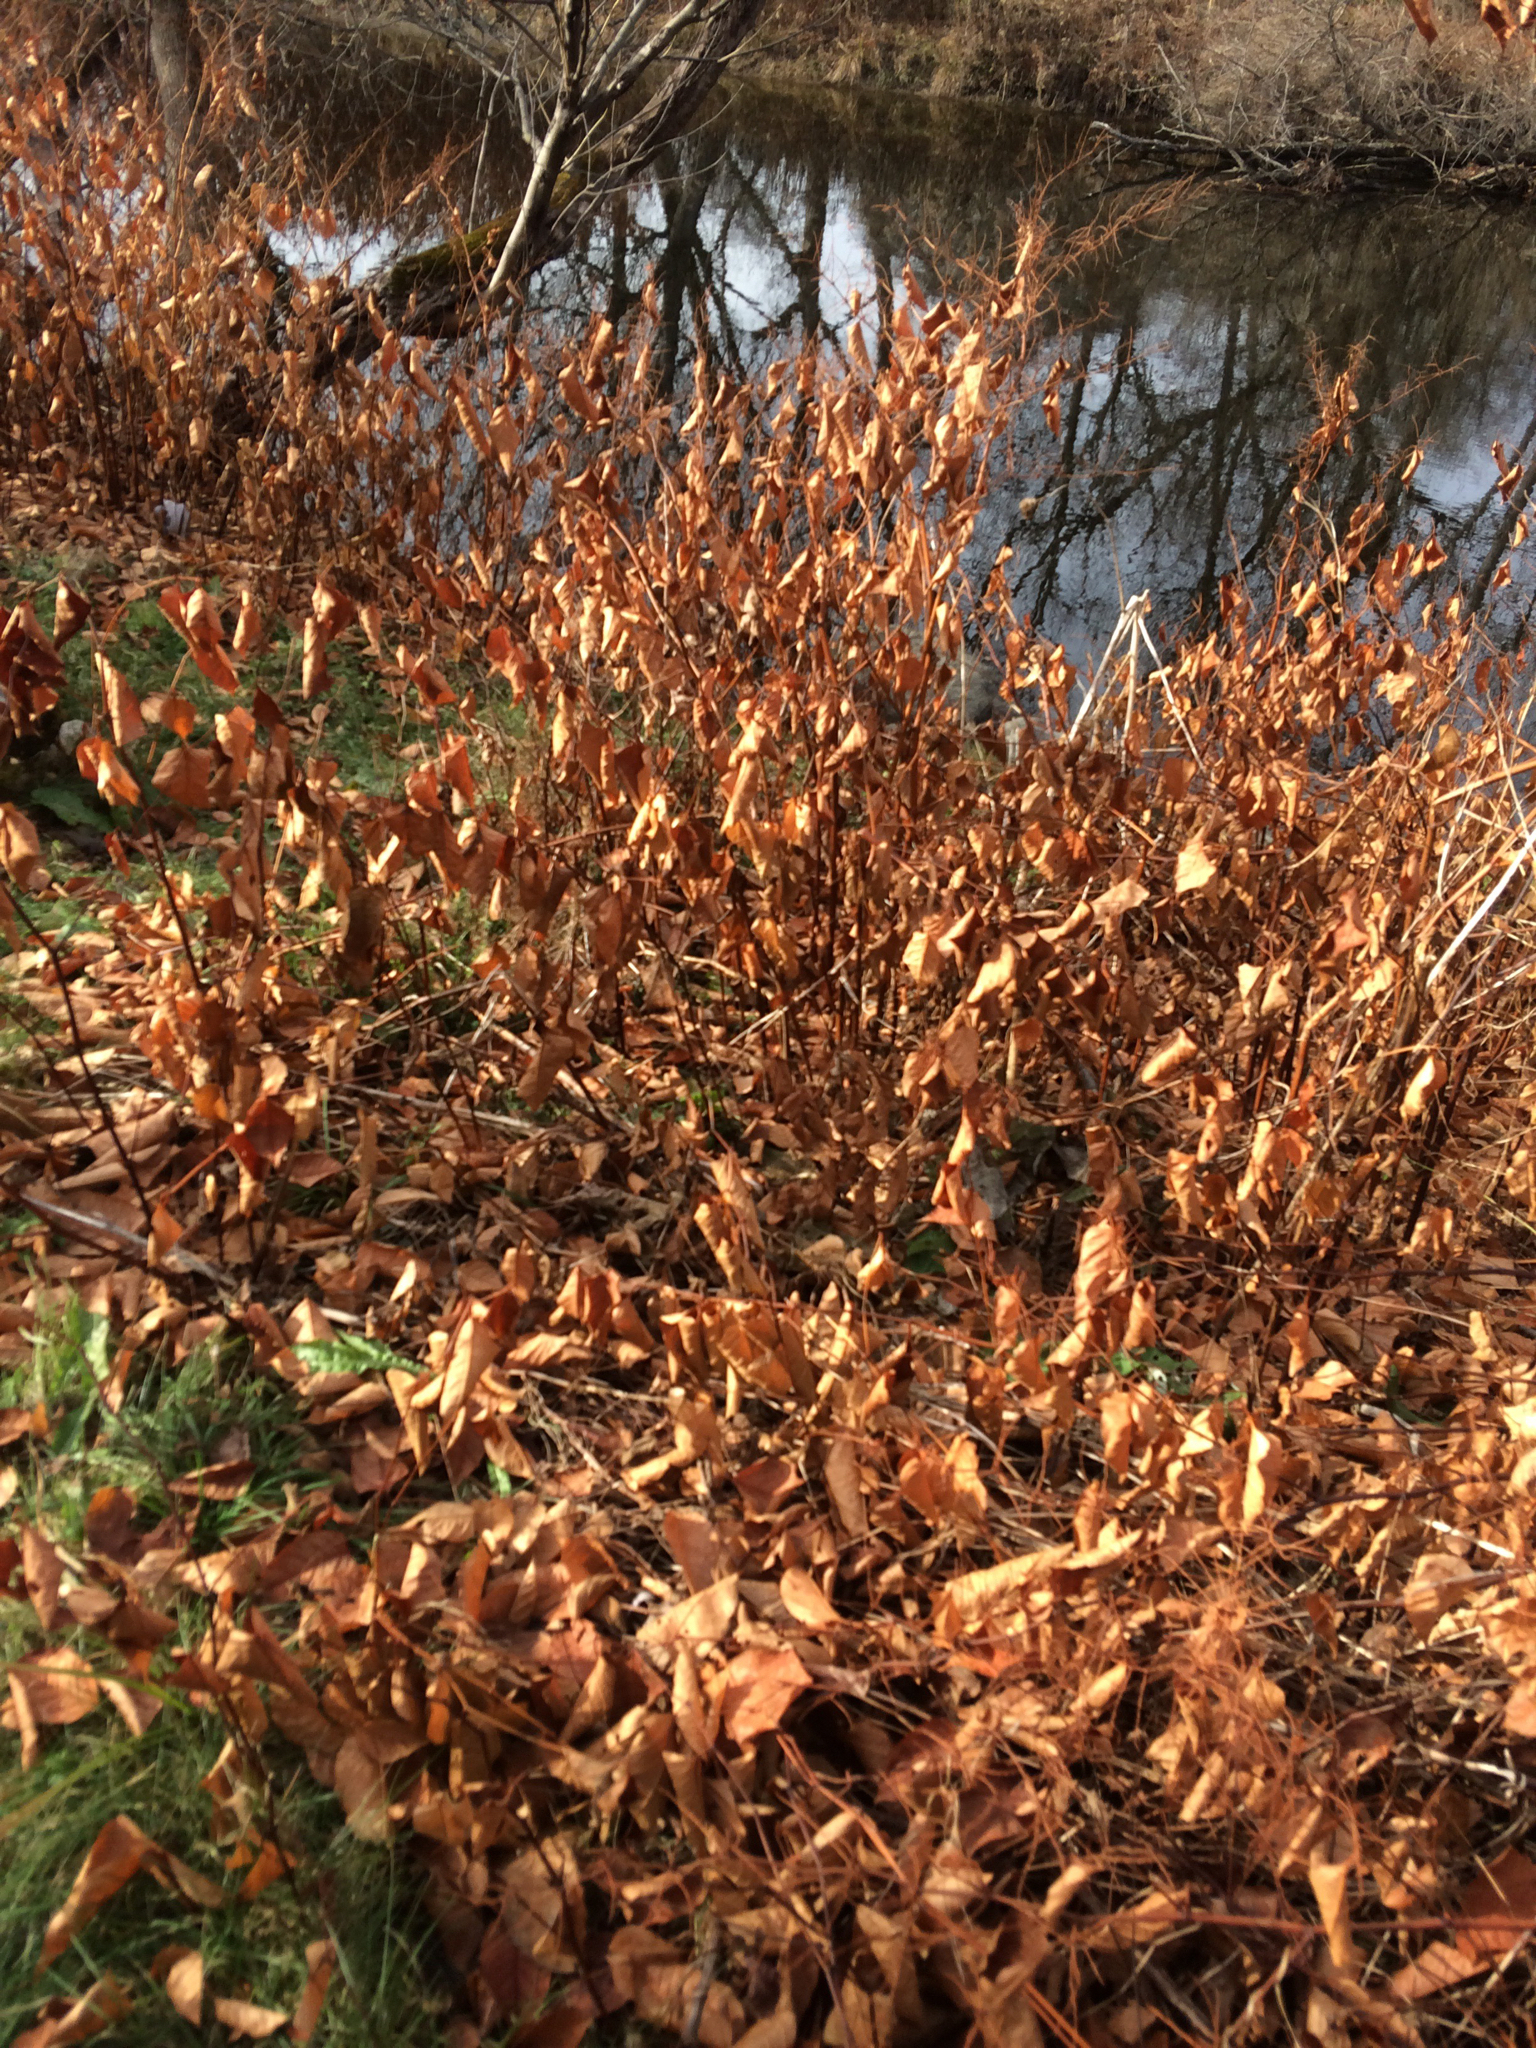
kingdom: Plantae
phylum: Tracheophyta
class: Magnoliopsida
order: Caryophyllales
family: Polygonaceae
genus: Reynoutria
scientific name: Reynoutria japonica
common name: Japanese knotweed
